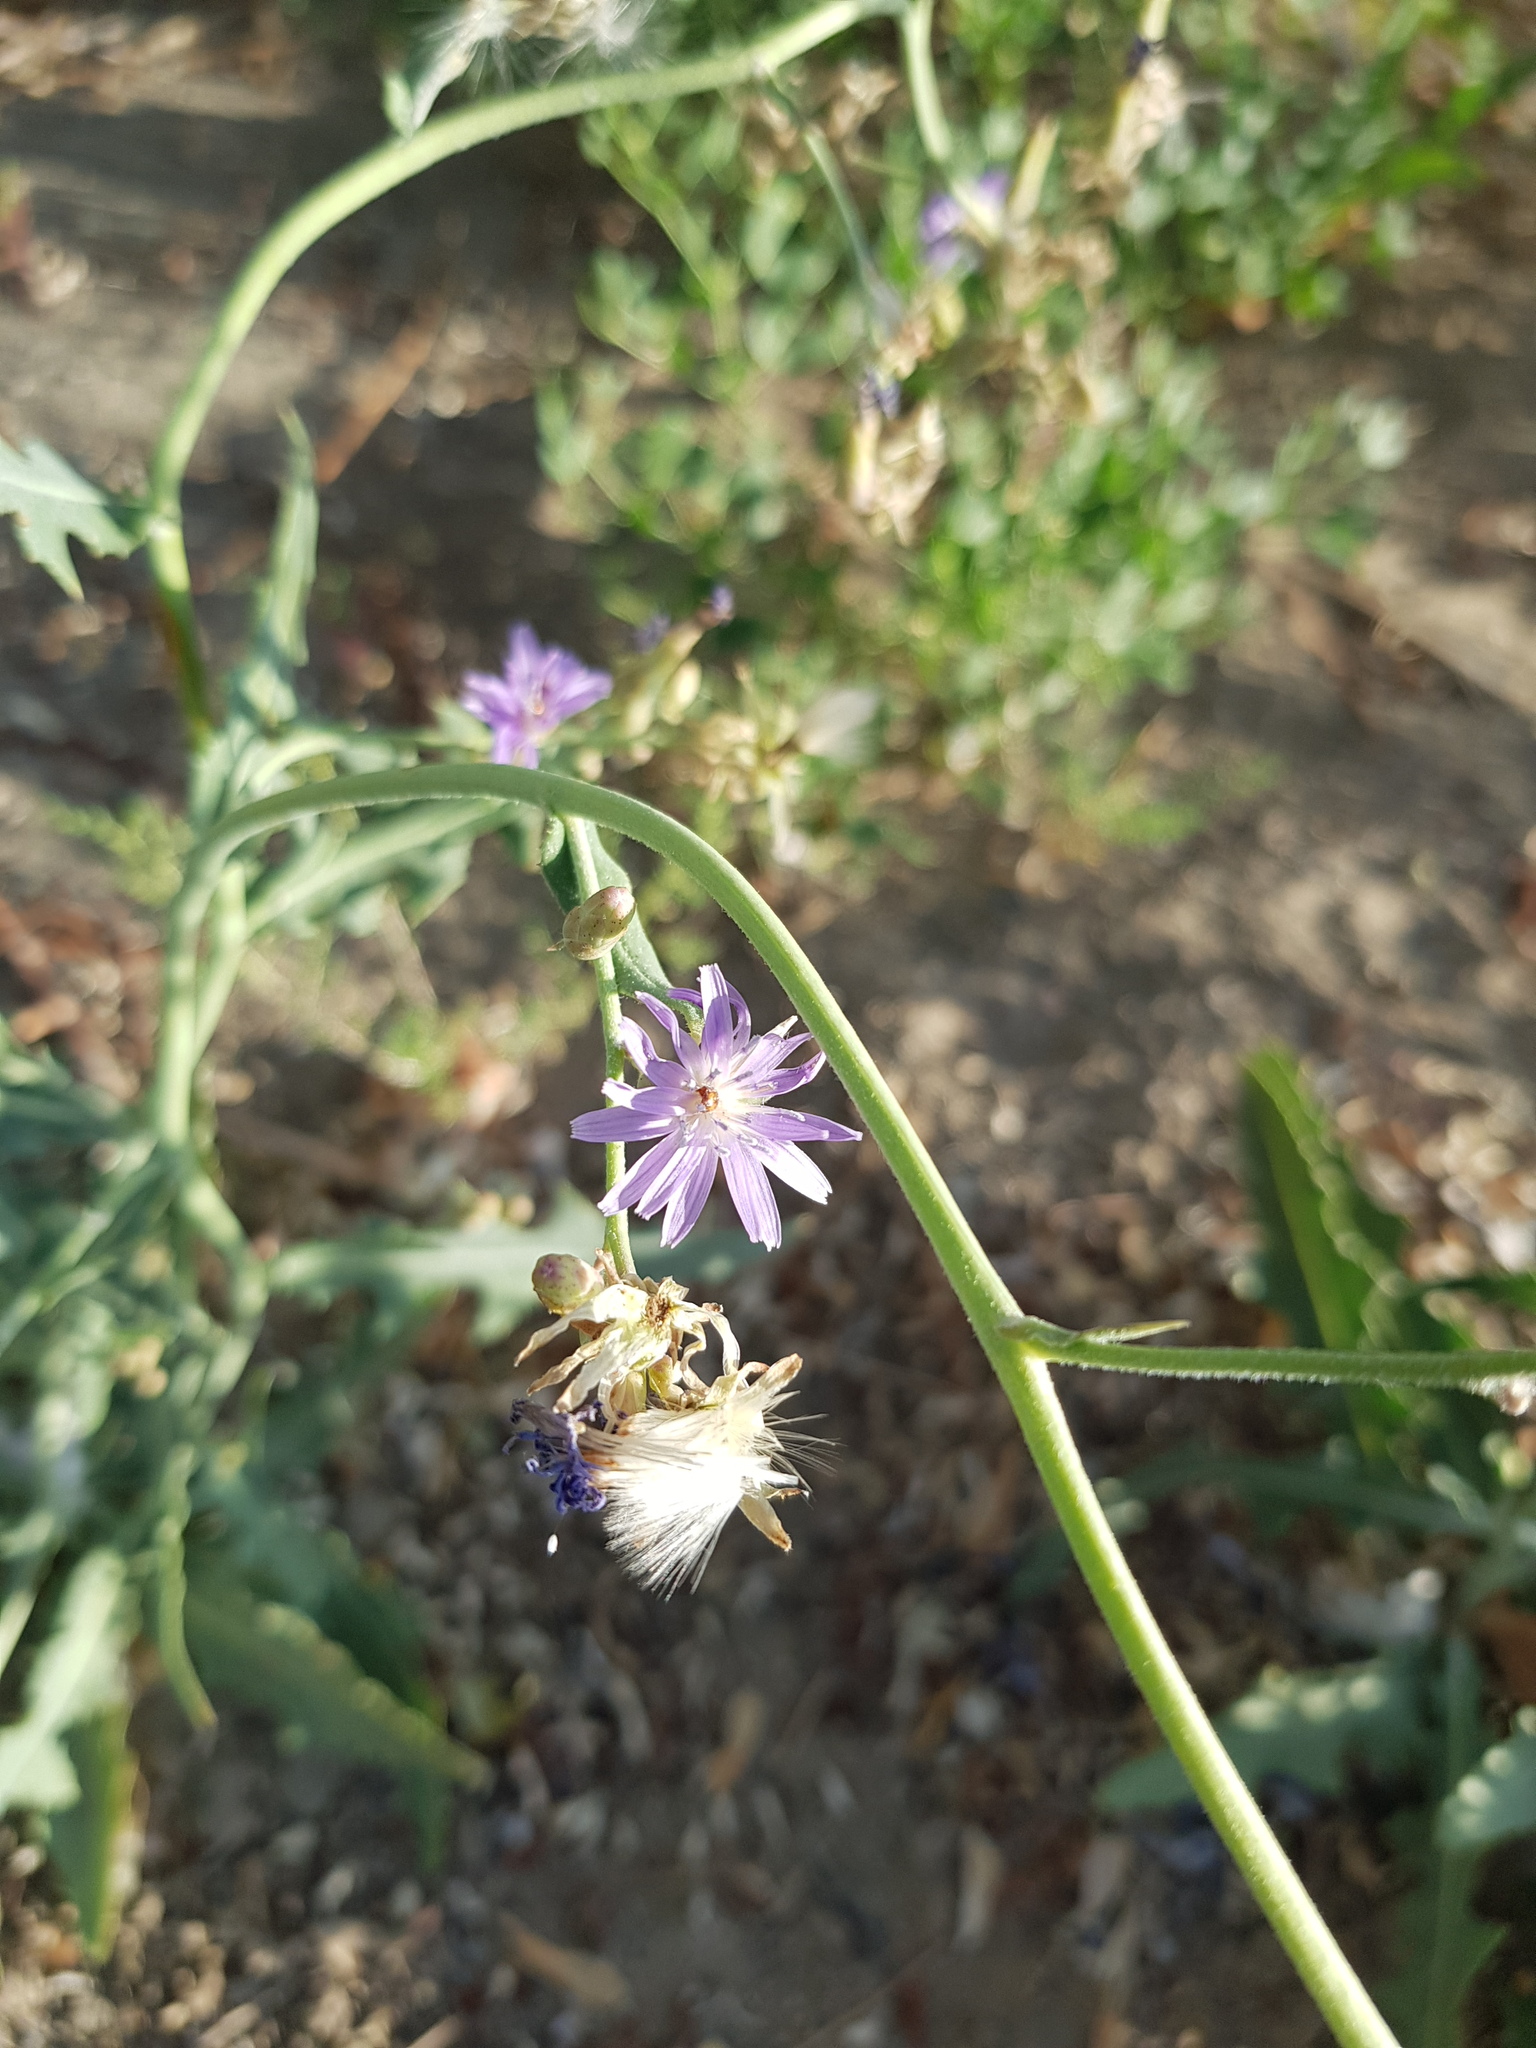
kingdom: Plantae
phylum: Tracheophyta
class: Magnoliopsida
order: Asterales
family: Asteraceae
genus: Lactuca
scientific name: Lactuca tatarica
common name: Blue lettuce
